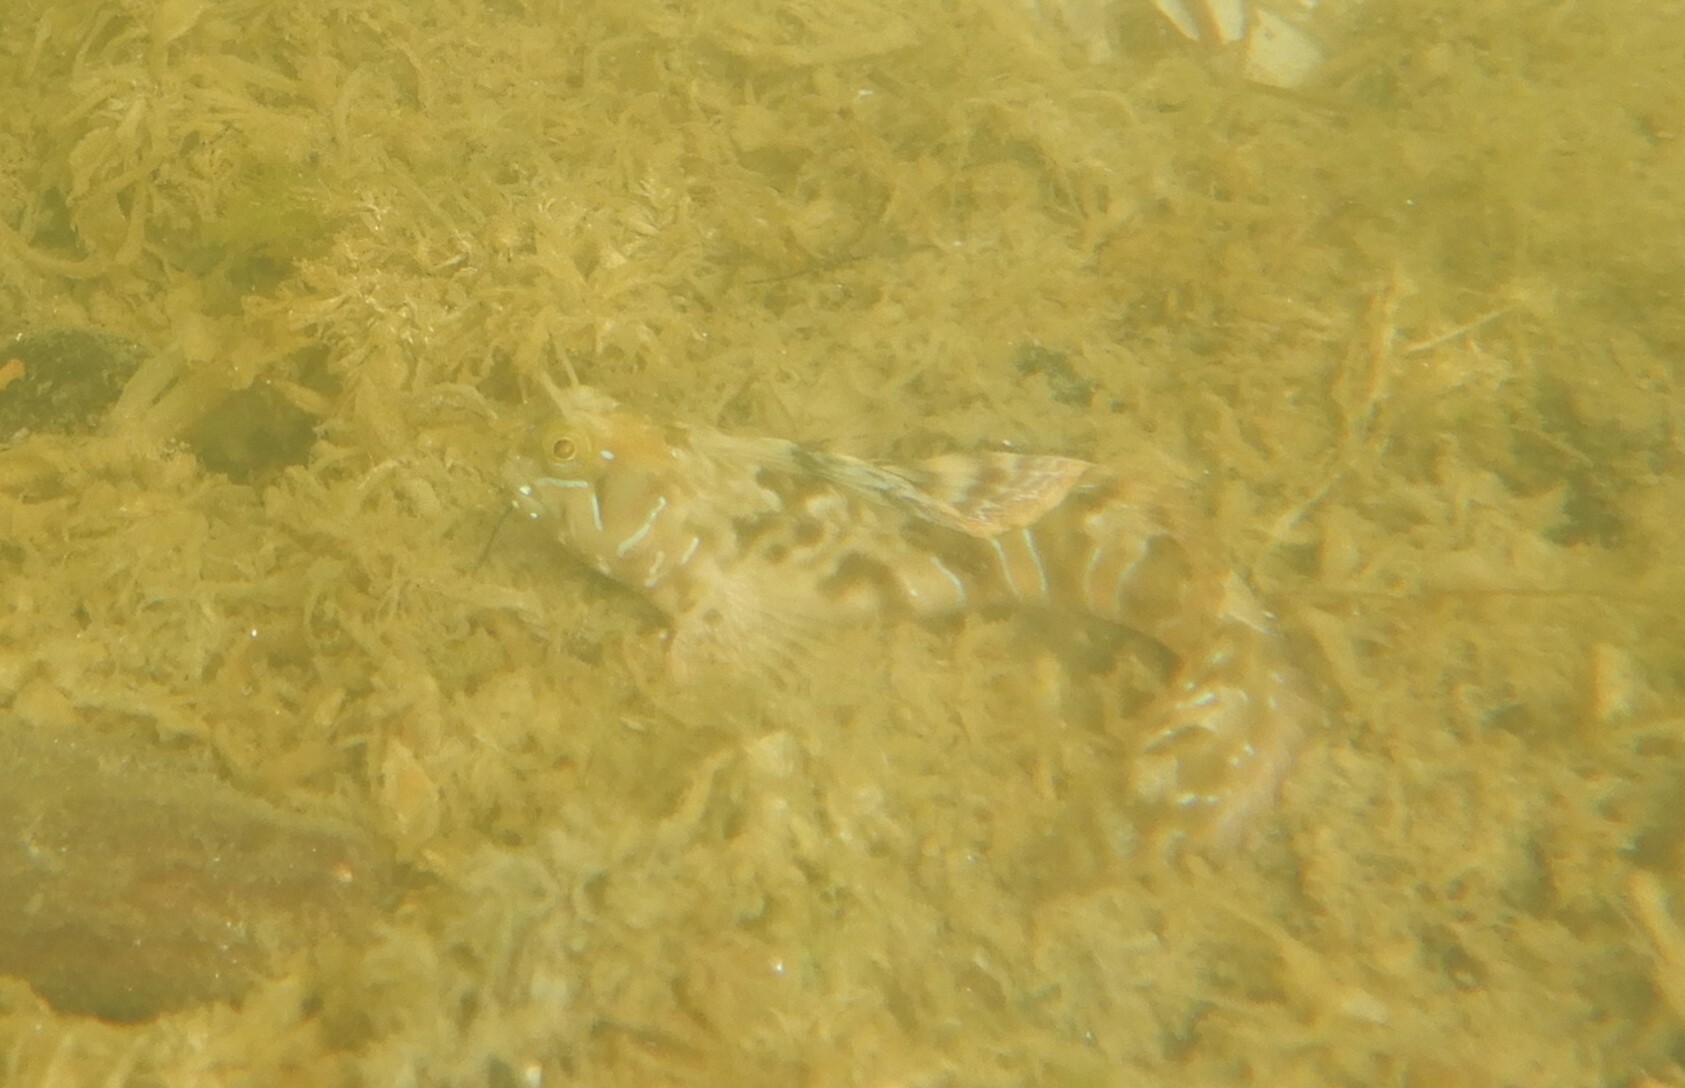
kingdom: Animalia
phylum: Chordata
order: Perciformes
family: Blenniidae
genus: Aidablennius
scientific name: Aidablennius sphynx
